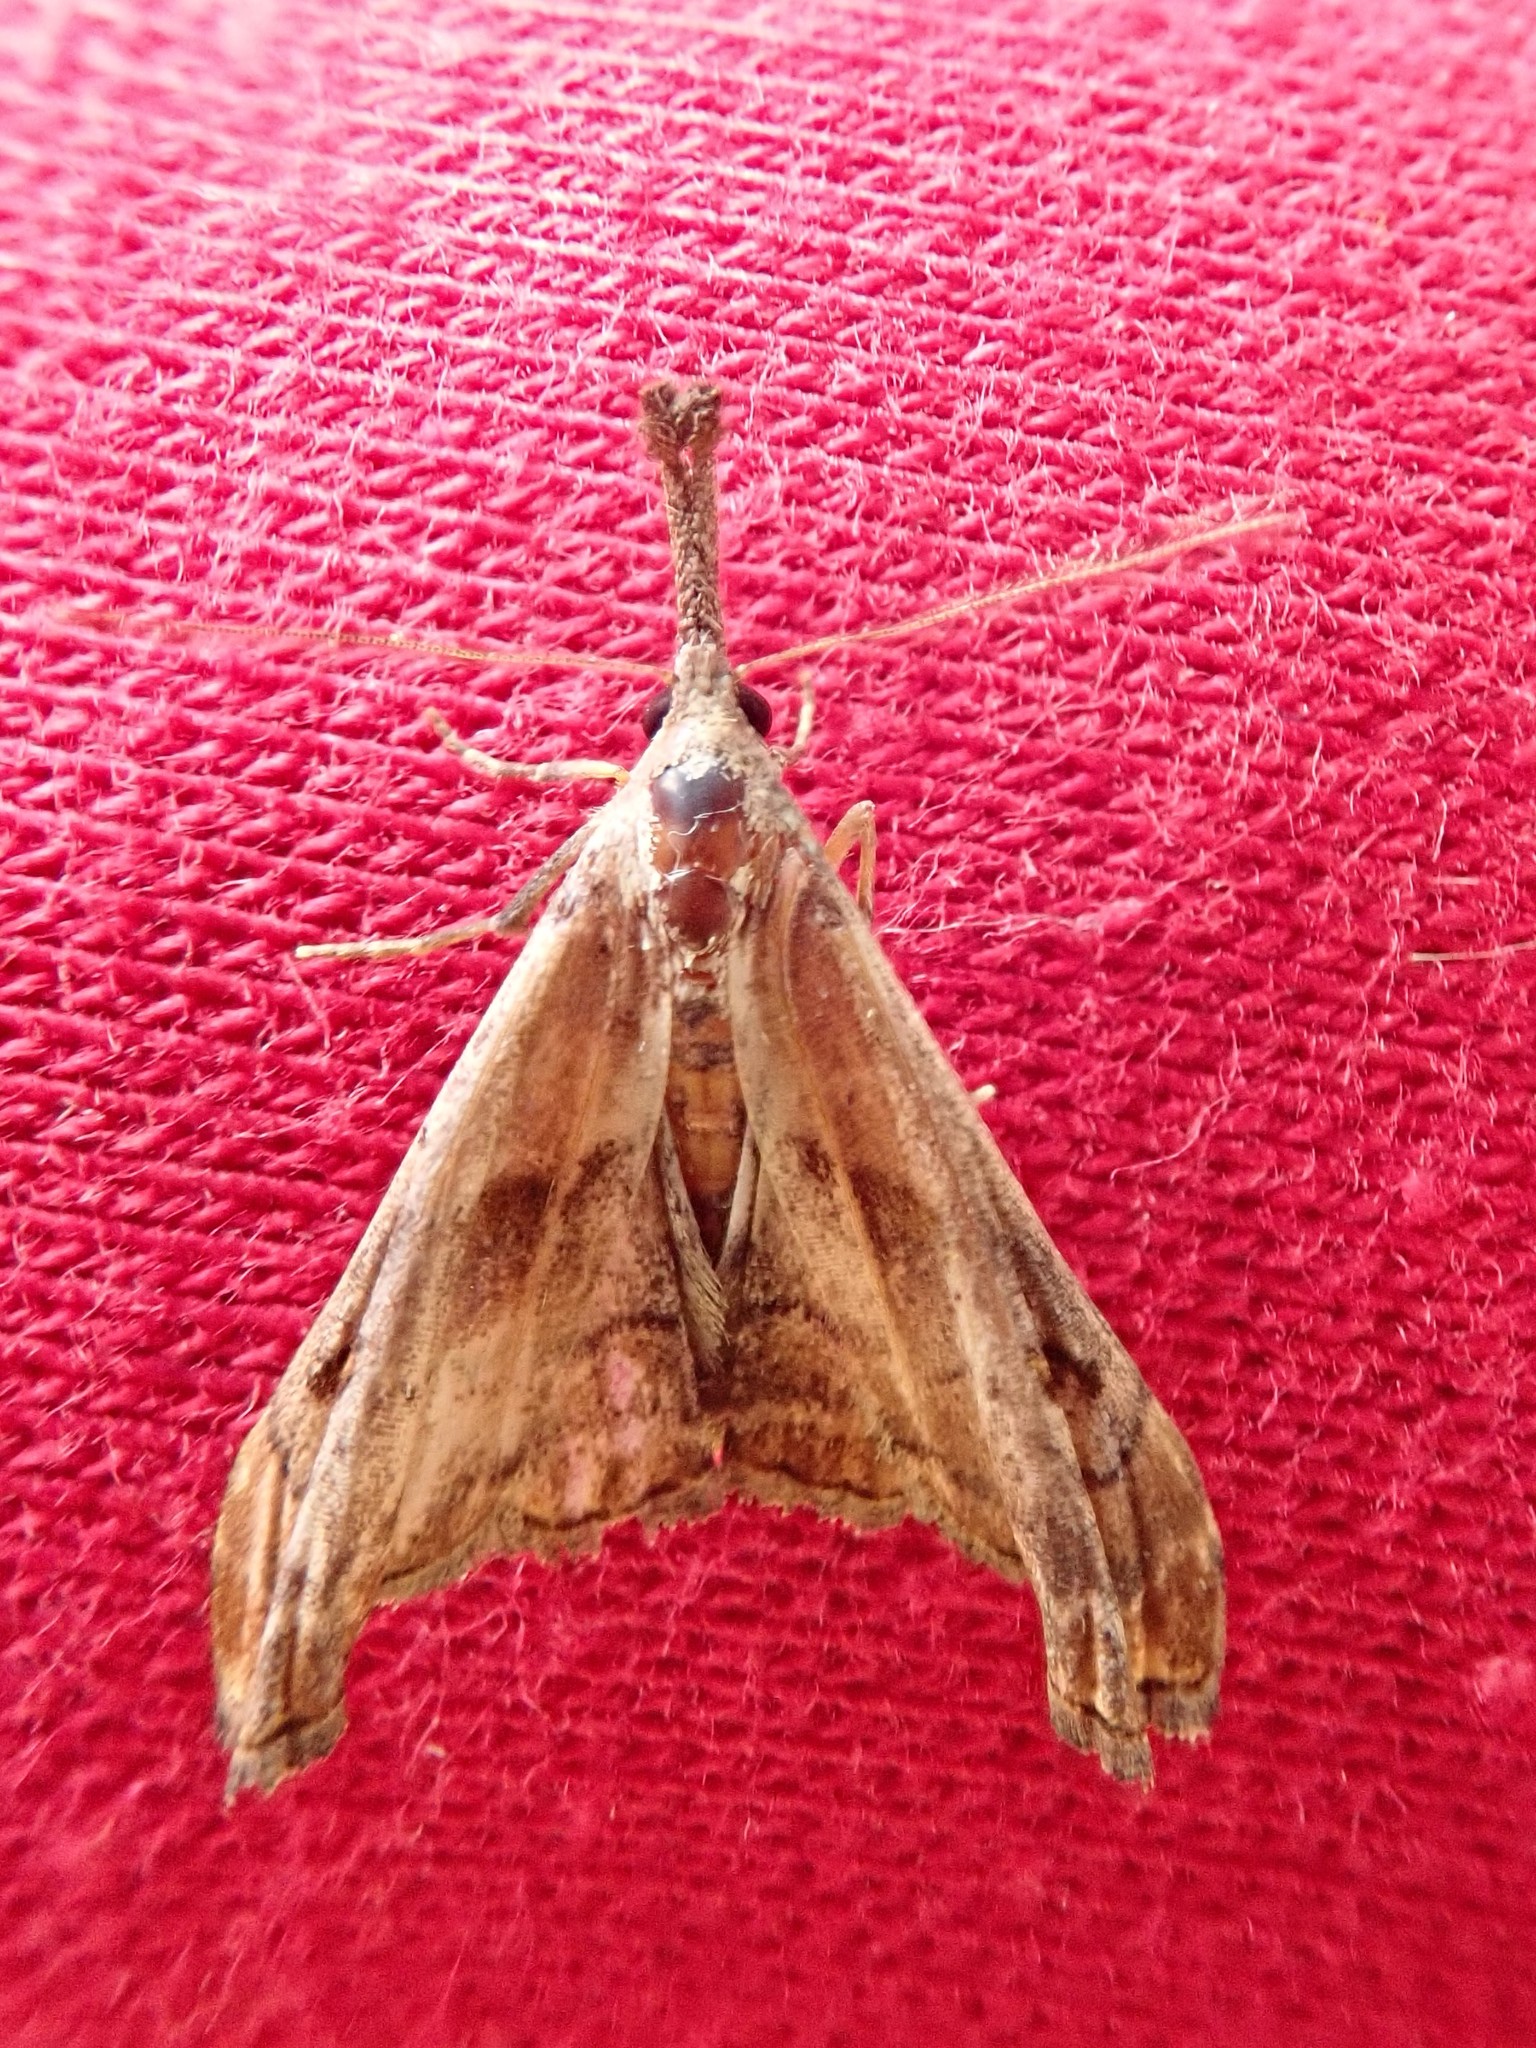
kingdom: Animalia
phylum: Arthropoda
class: Insecta
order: Lepidoptera
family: Erebidae
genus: Palthis
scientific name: Palthis angulalis
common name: Dark-spotted palthis moth
